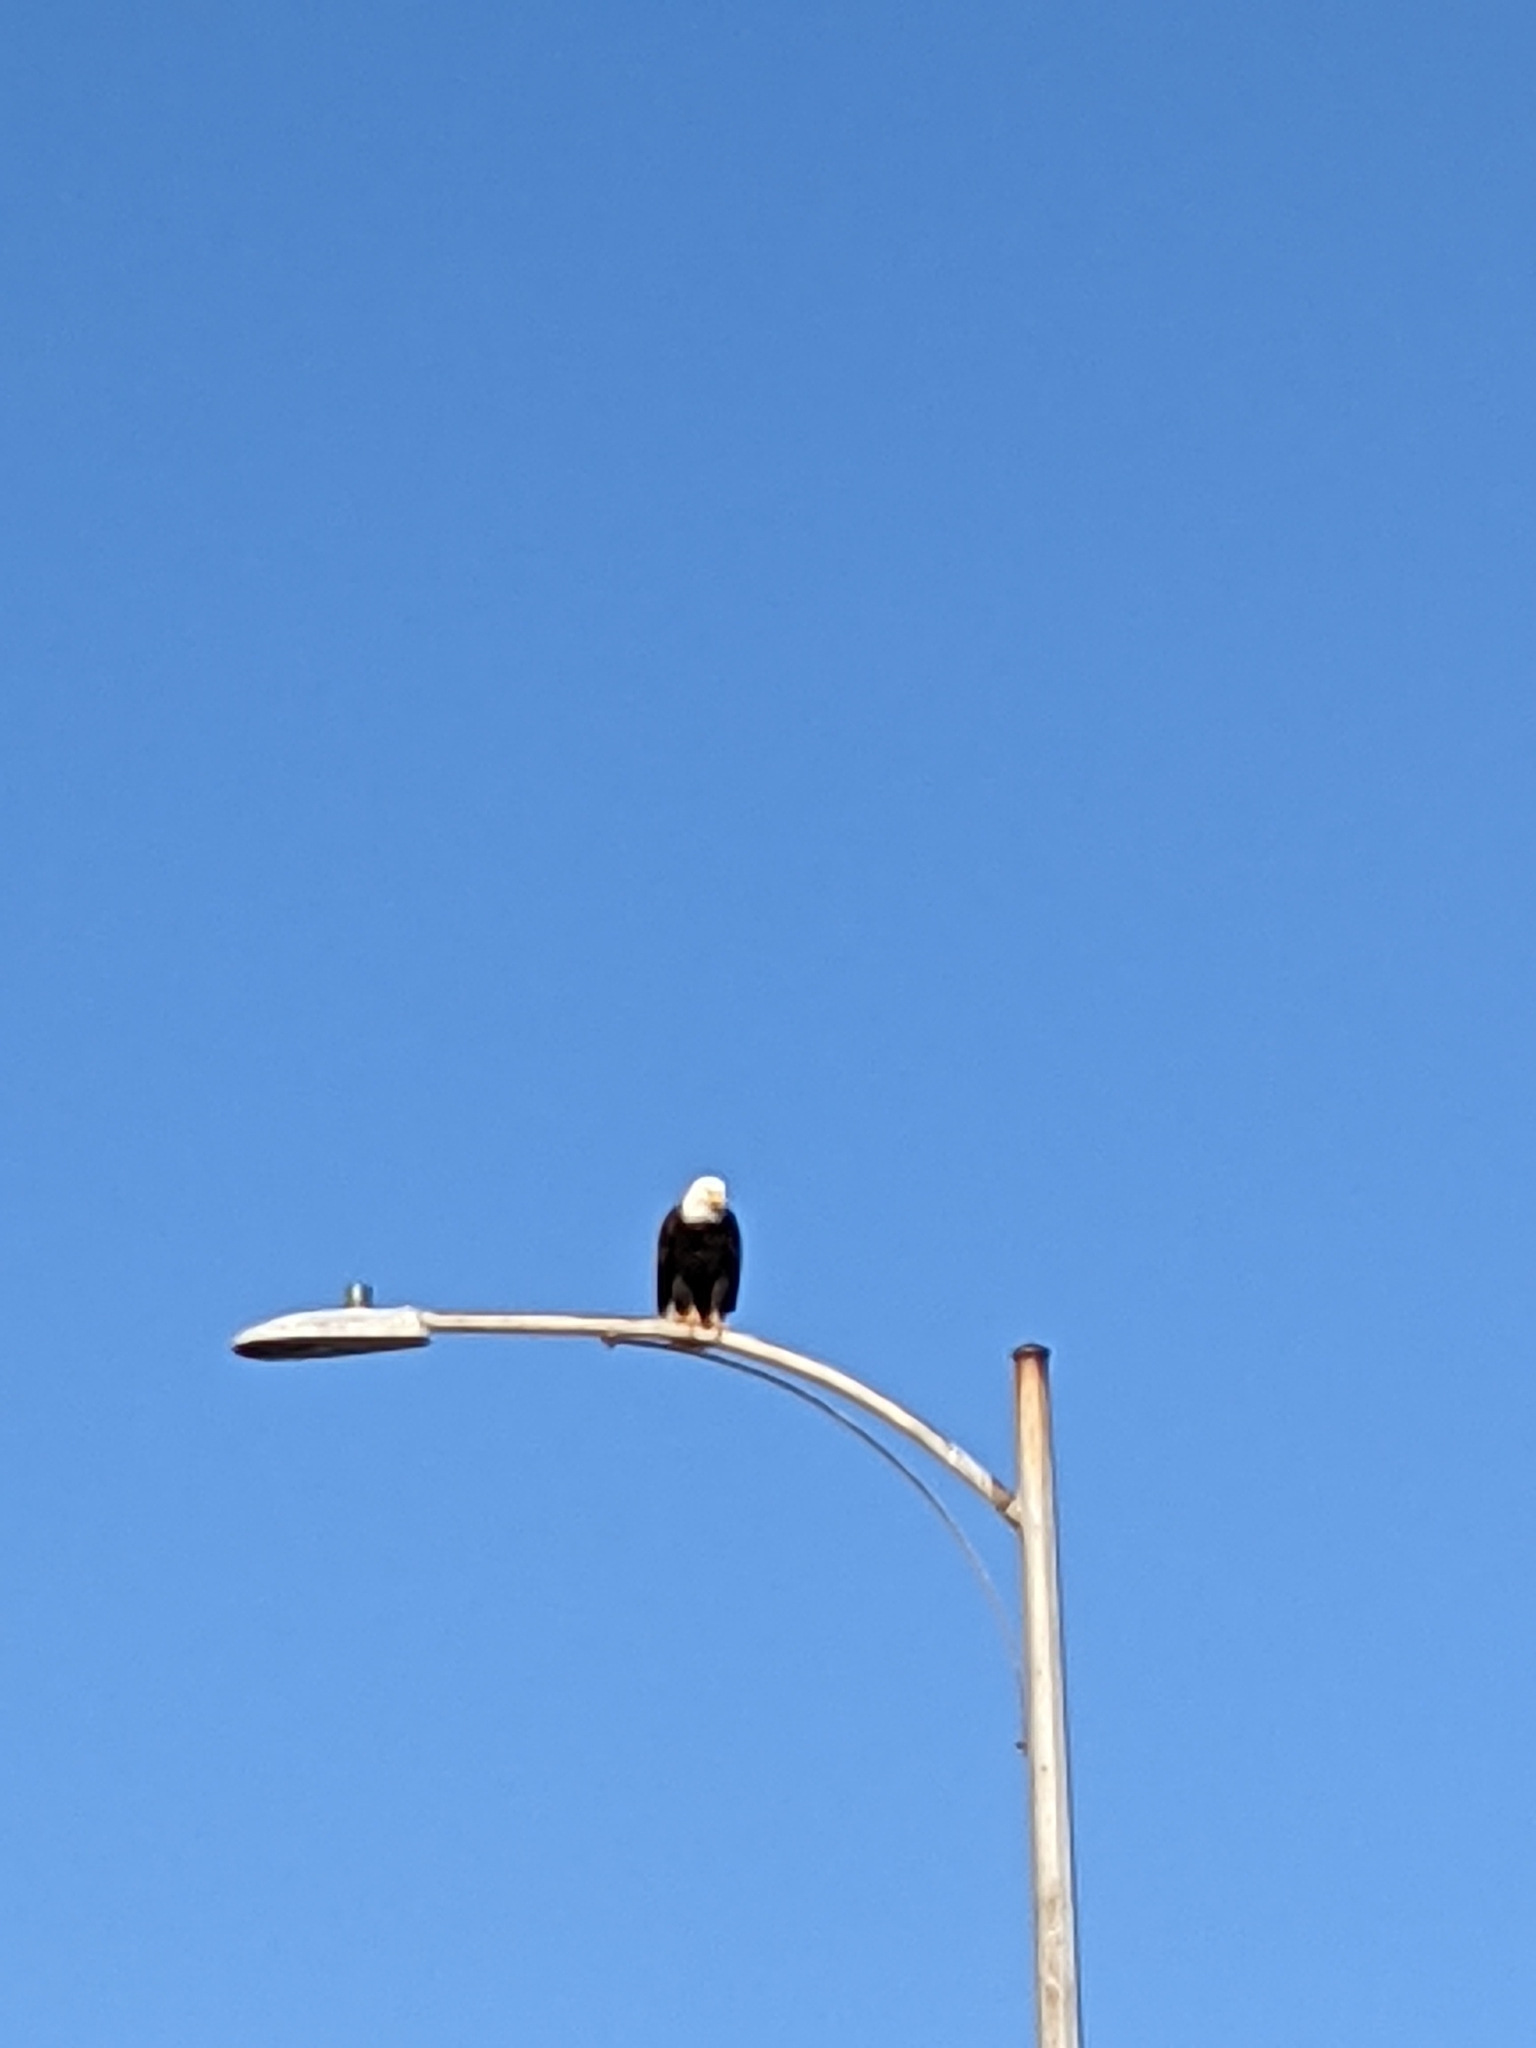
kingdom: Animalia
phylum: Chordata
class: Aves
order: Accipitriformes
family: Accipitridae
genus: Haliaeetus
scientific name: Haliaeetus leucocephalus
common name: Bald eagle
